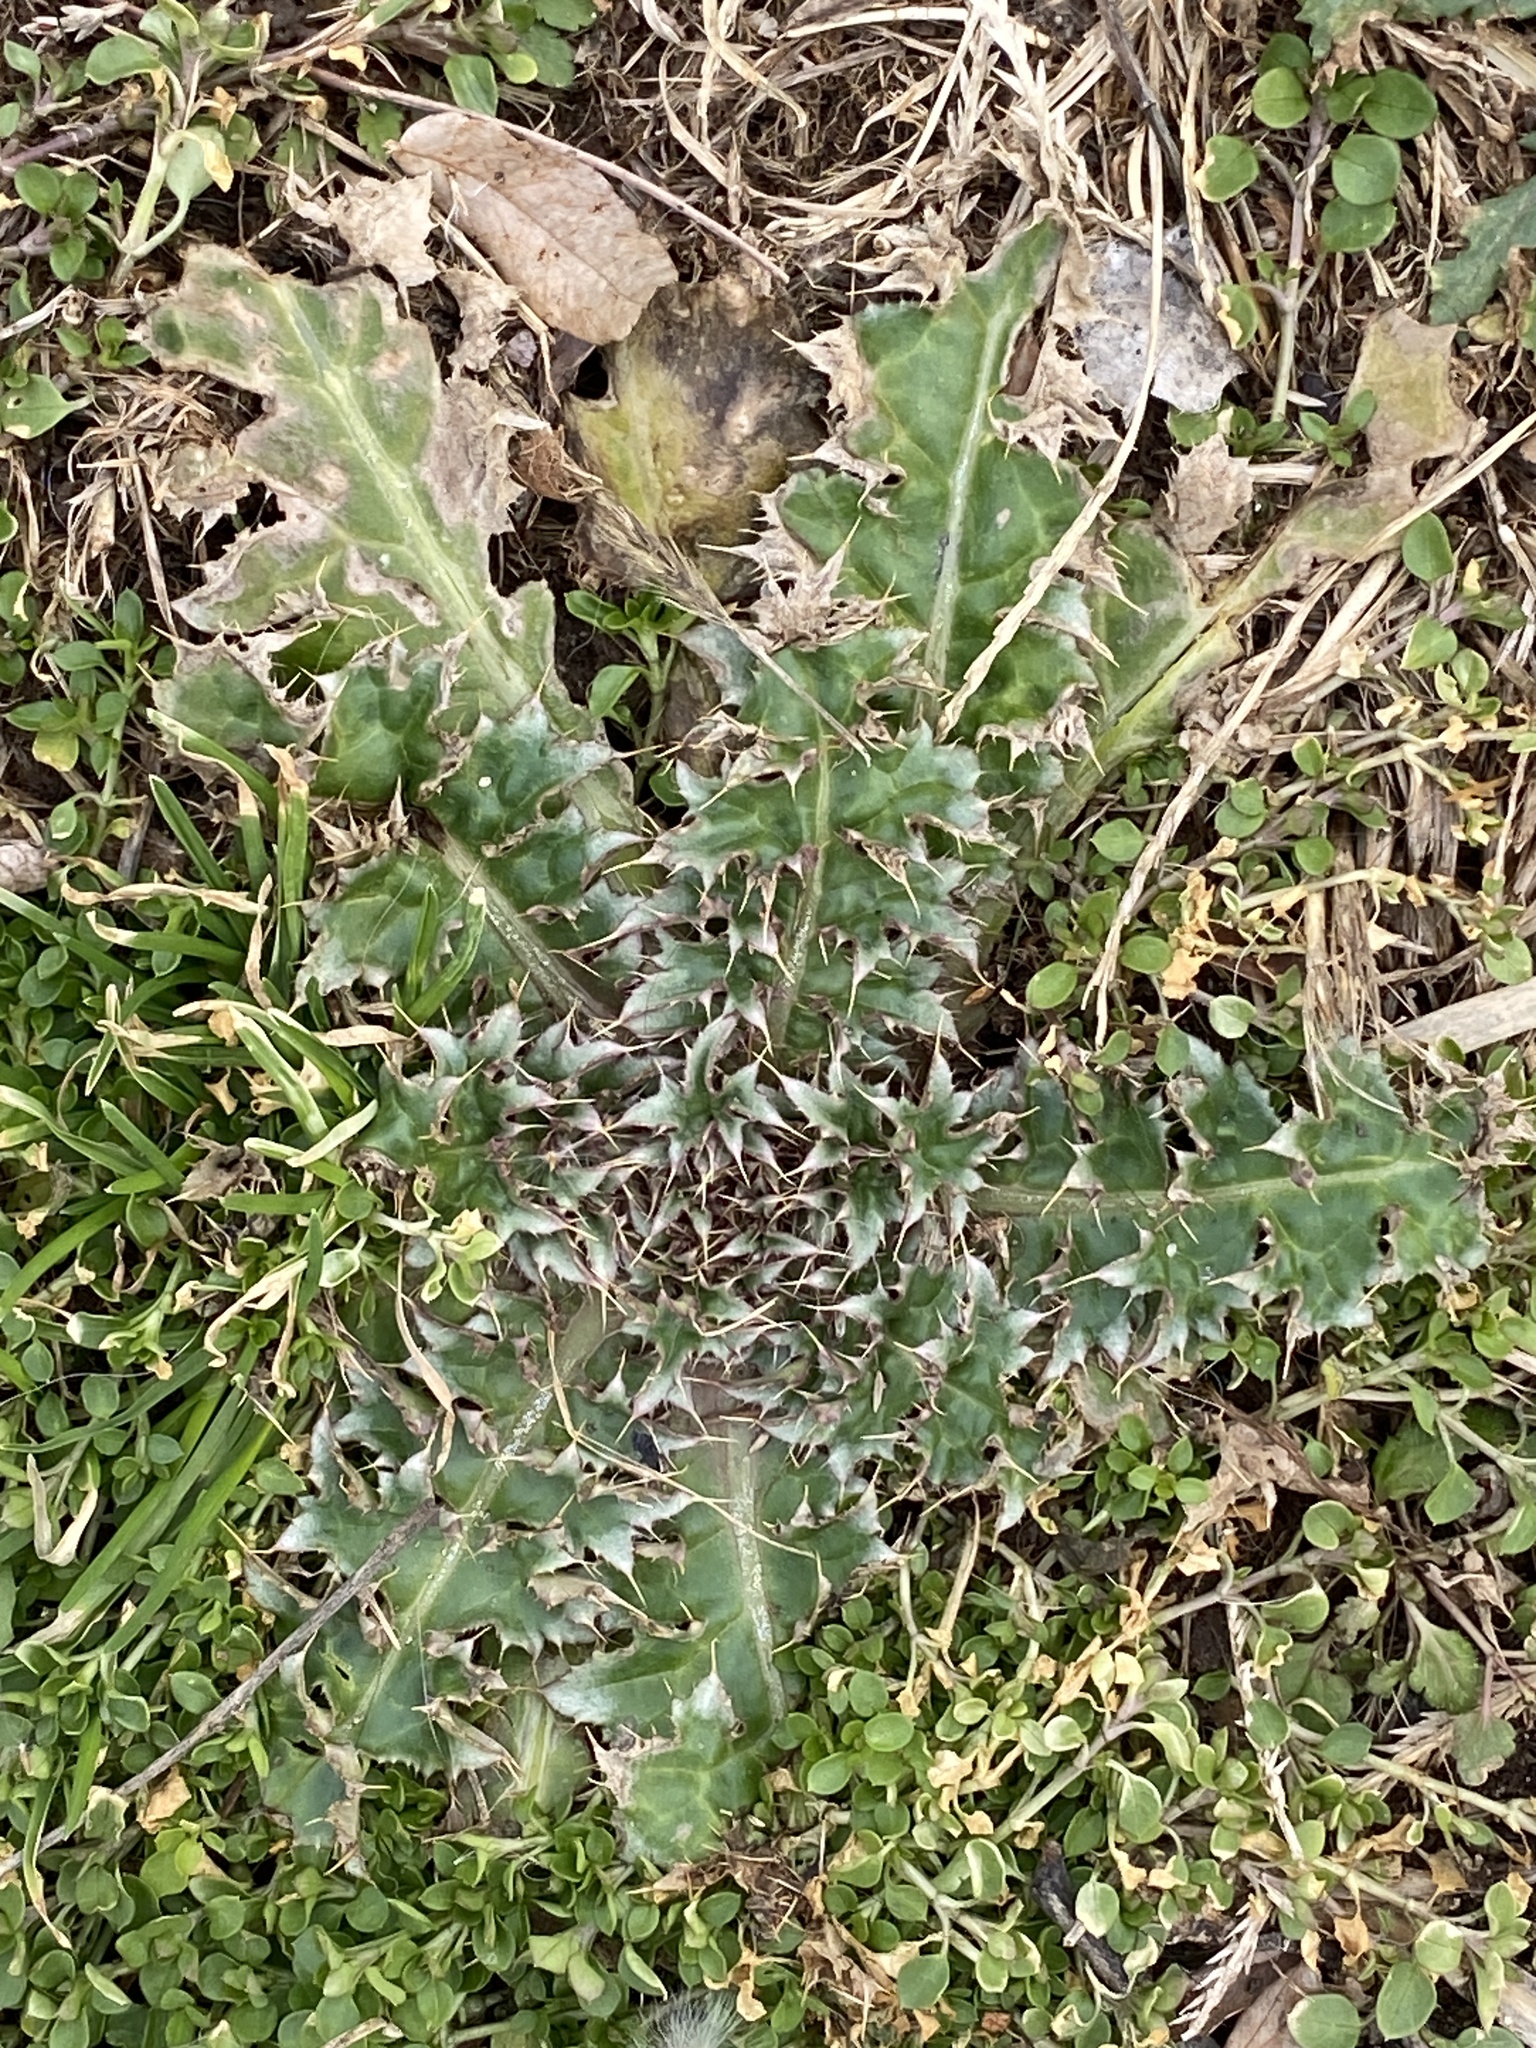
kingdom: Plantae
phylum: Tracheophyta
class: Magnoliopsida
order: Asterales
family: Asteraceae
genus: Carduus
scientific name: Carduus nutans
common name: Musk thistle
